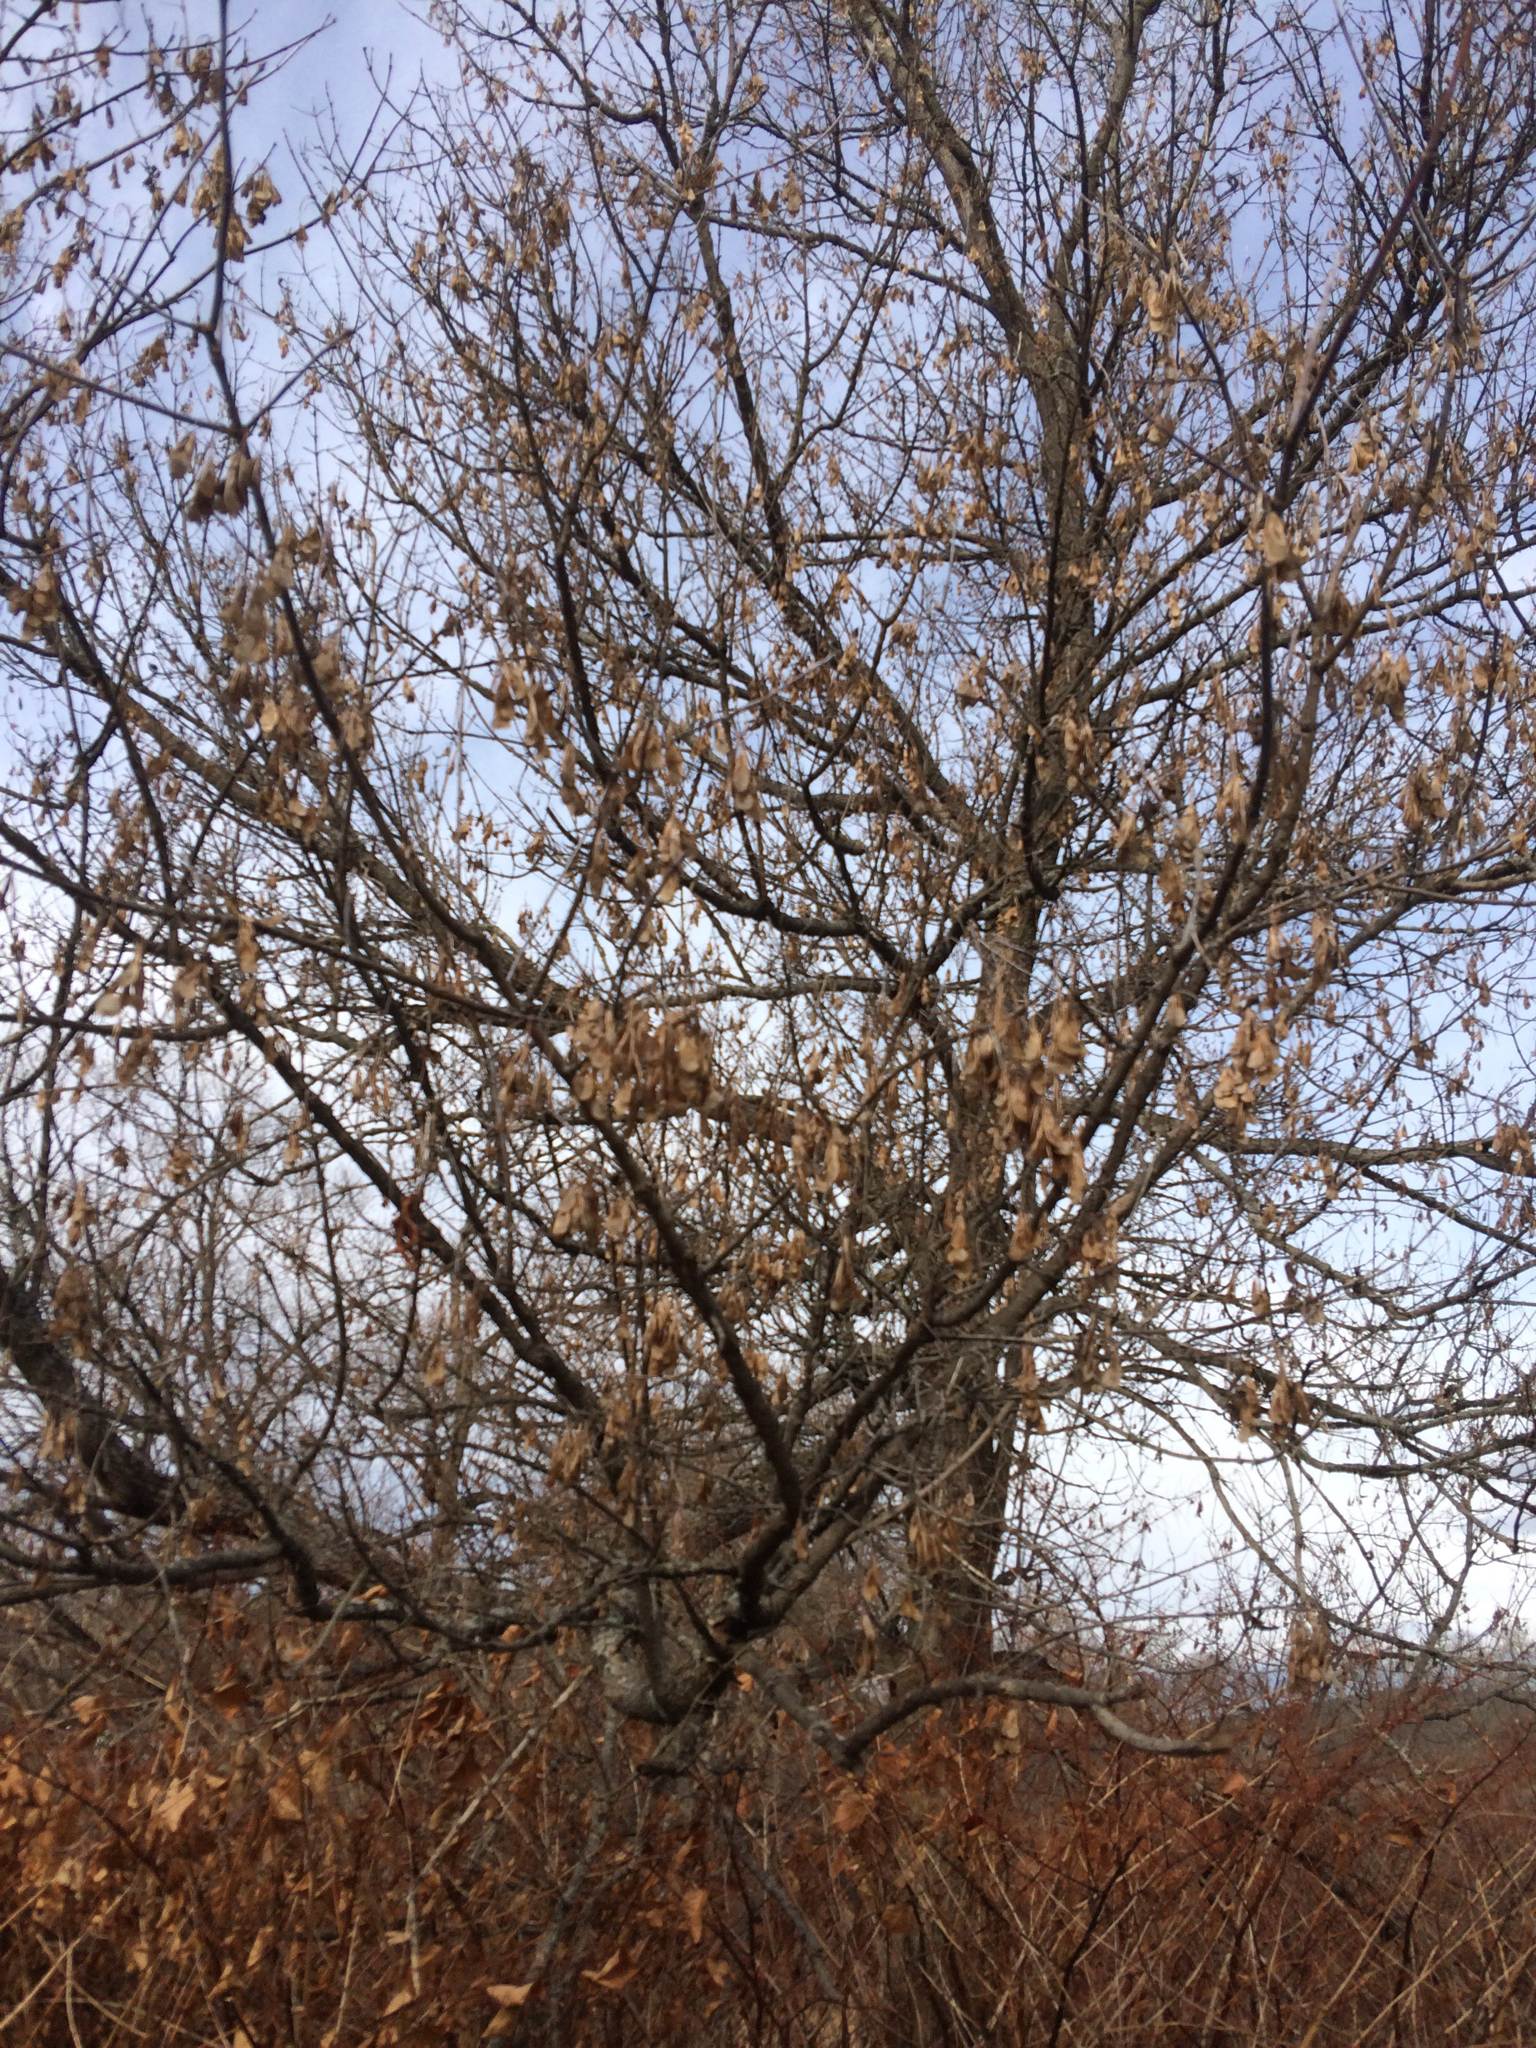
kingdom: Plantae
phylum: Tracheophyta
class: Magnoliopsida
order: Sapindales
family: Sapindaceae
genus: Acer
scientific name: Acer negundo
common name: Ashleaf maple
